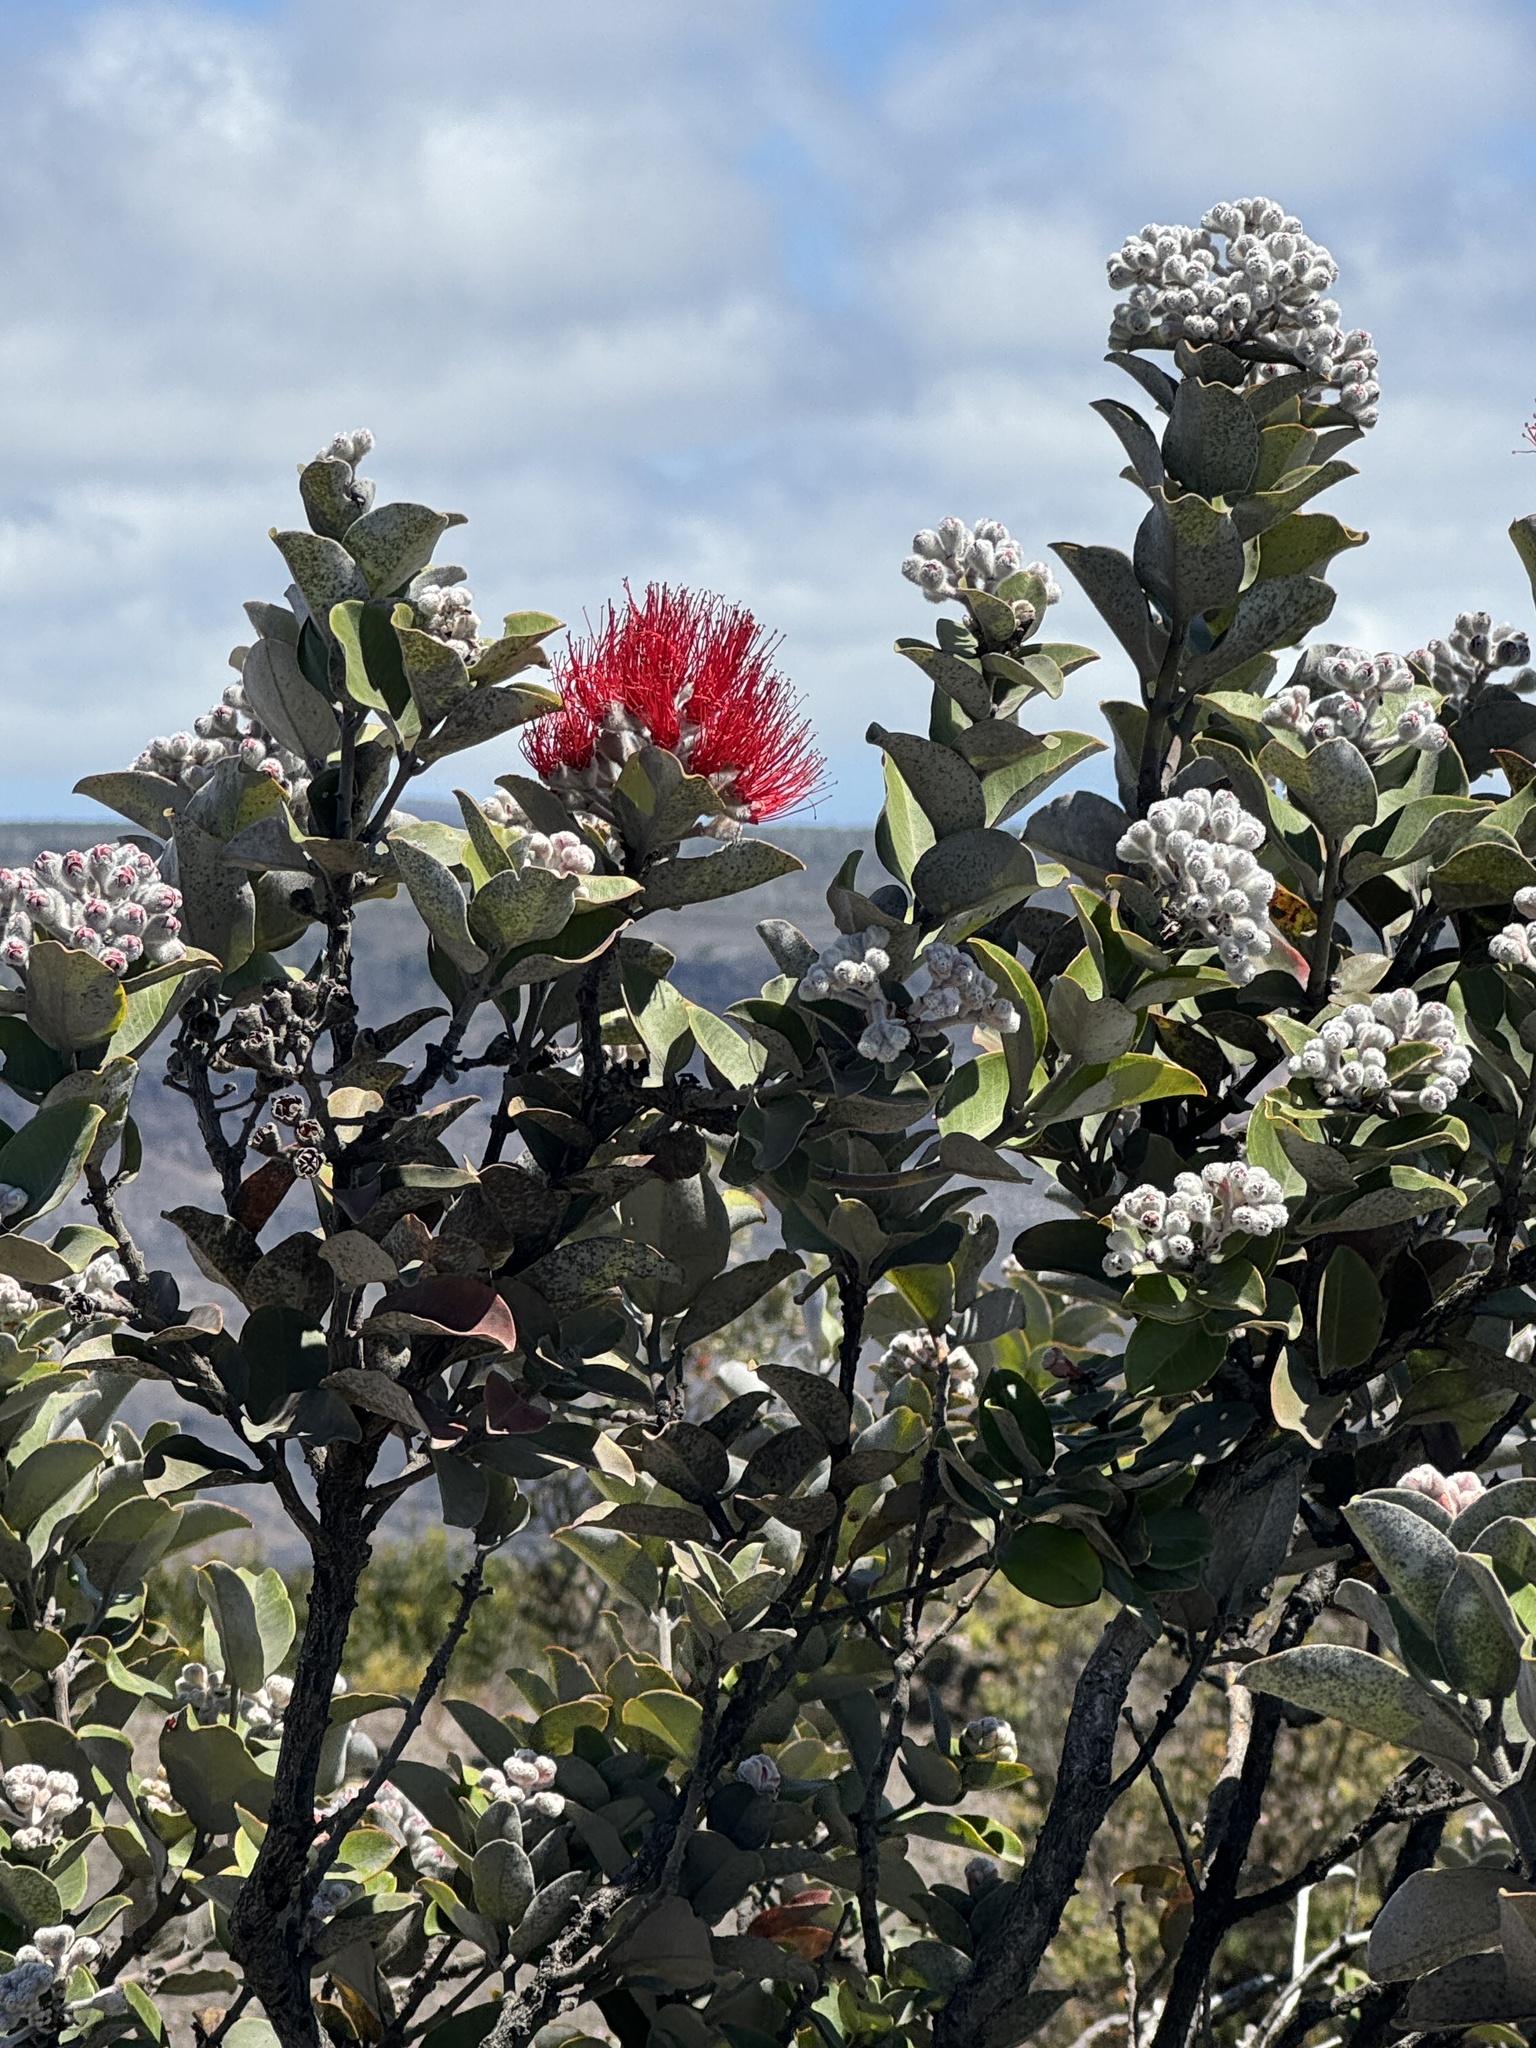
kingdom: Plantae
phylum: Tracheophyta
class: Magnoliopsida
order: Myrtales
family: Myrtaceae
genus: Metrosideros
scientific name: Metrosideros polymorpha
